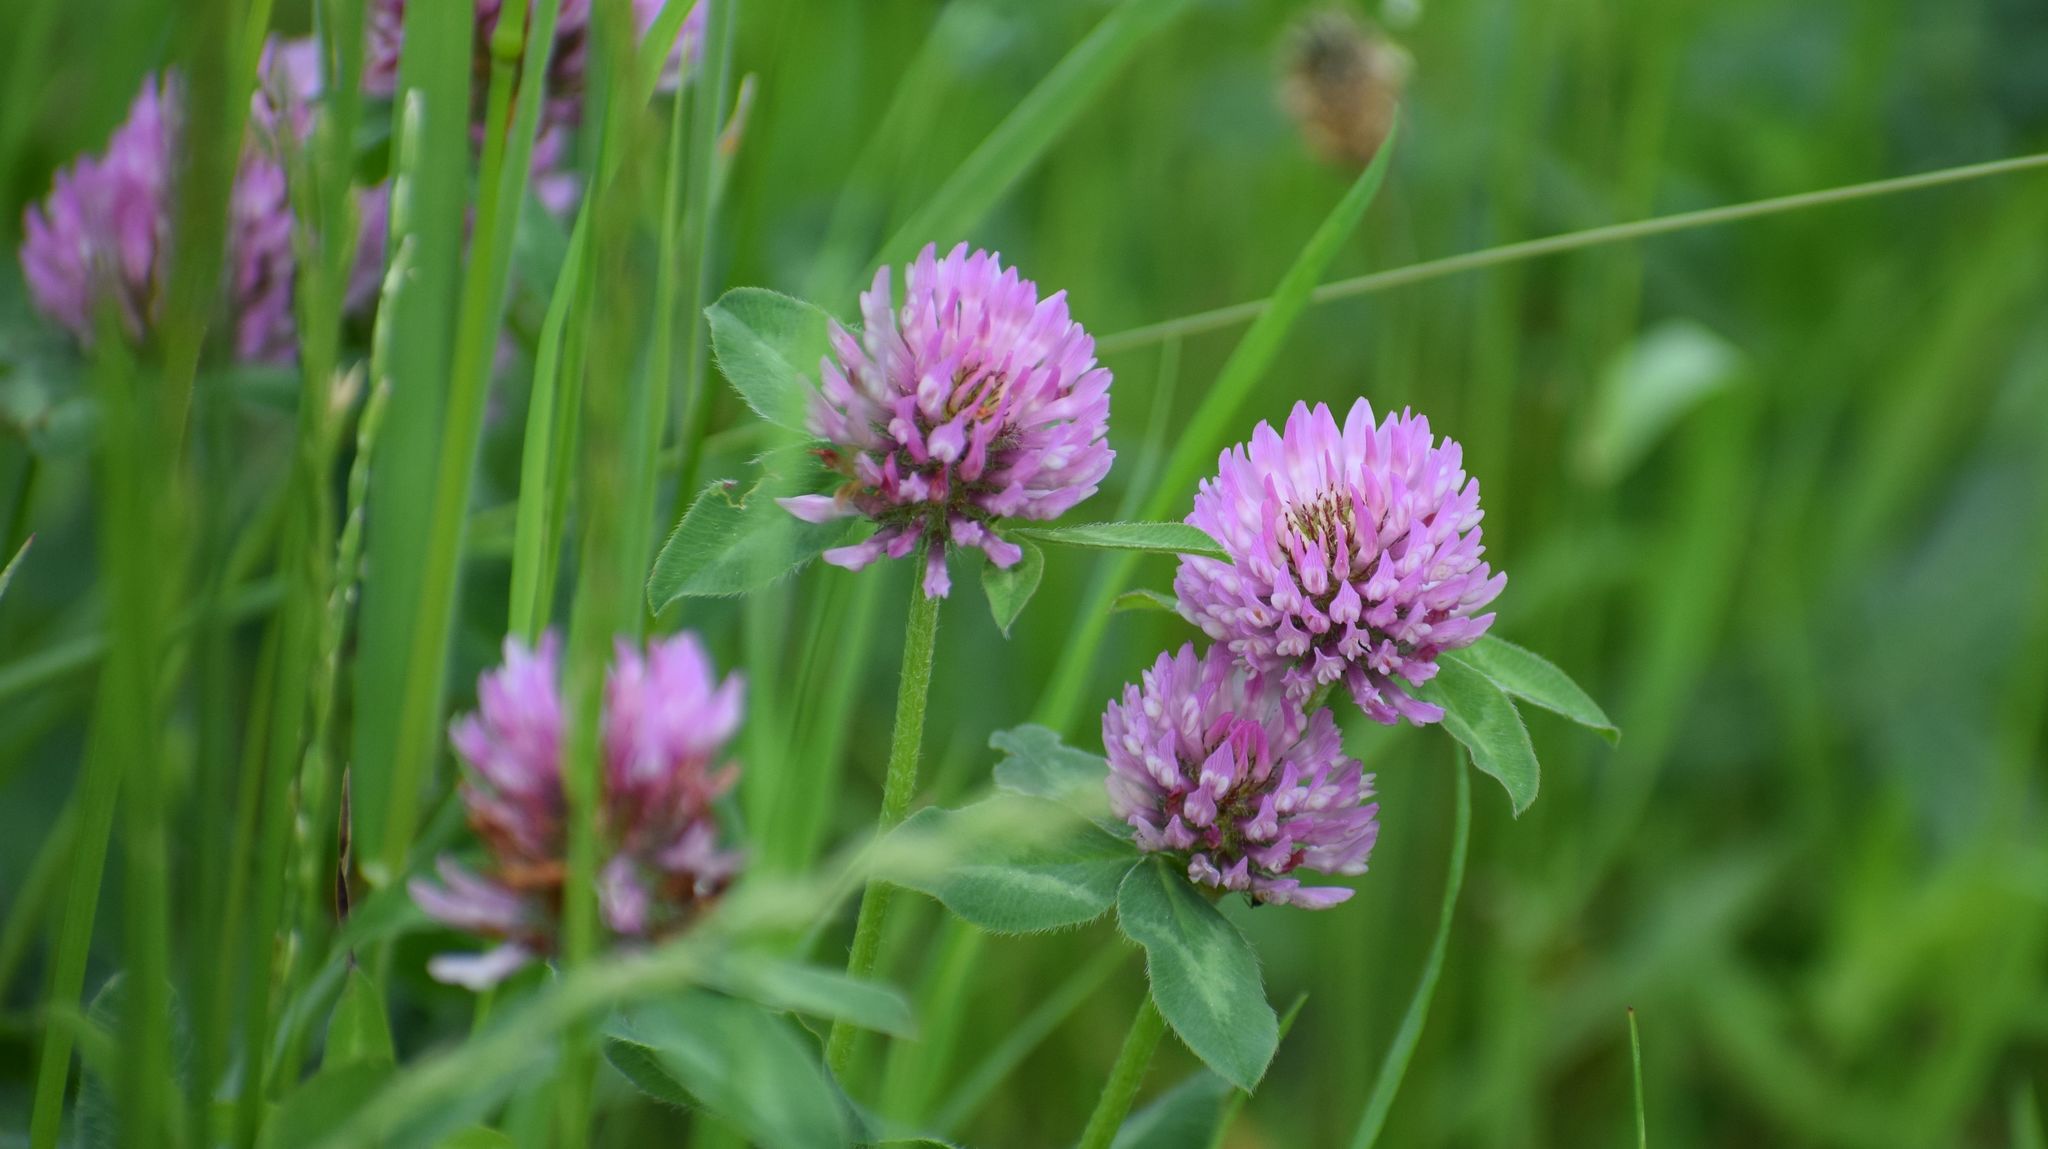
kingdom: Plantae
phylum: Tracheophyta
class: Magnoliopsida
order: Fabales
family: Fabaceae
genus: Trifolium
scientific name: Trifolium pratense
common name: Red clover
